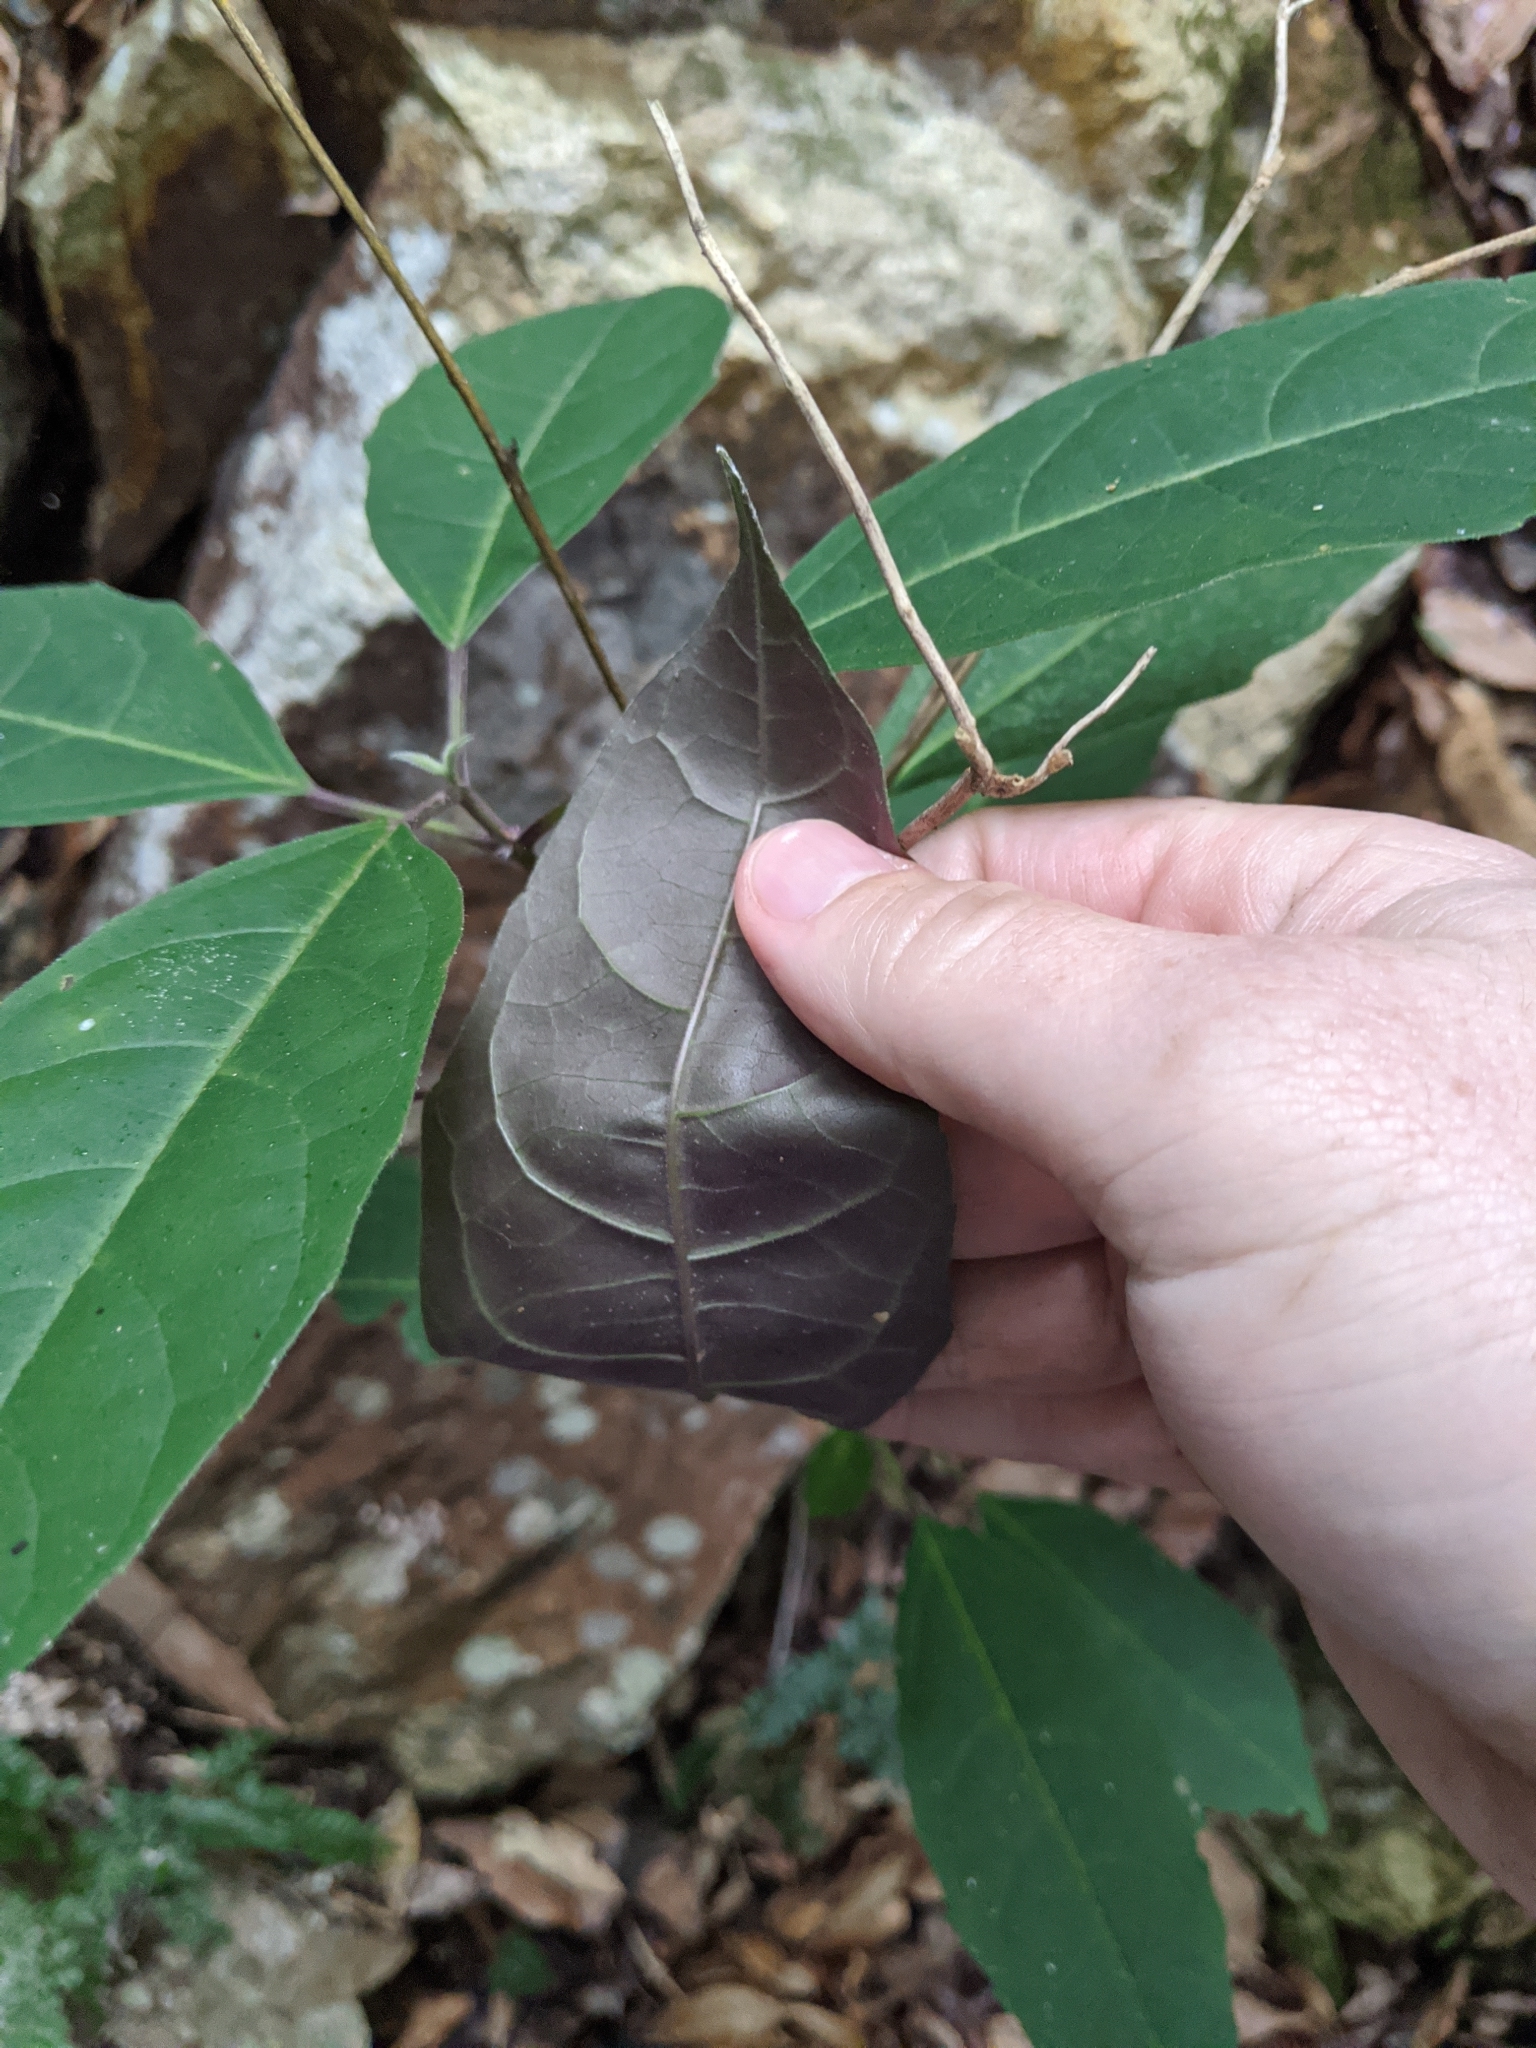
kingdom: Plantae
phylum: Tracheophyta
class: Magnoliopsida
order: Lamiales
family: Lamiaceae
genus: Clerodendrum
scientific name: Clerodendrum tomentosum
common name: Hairy clerodendrum
